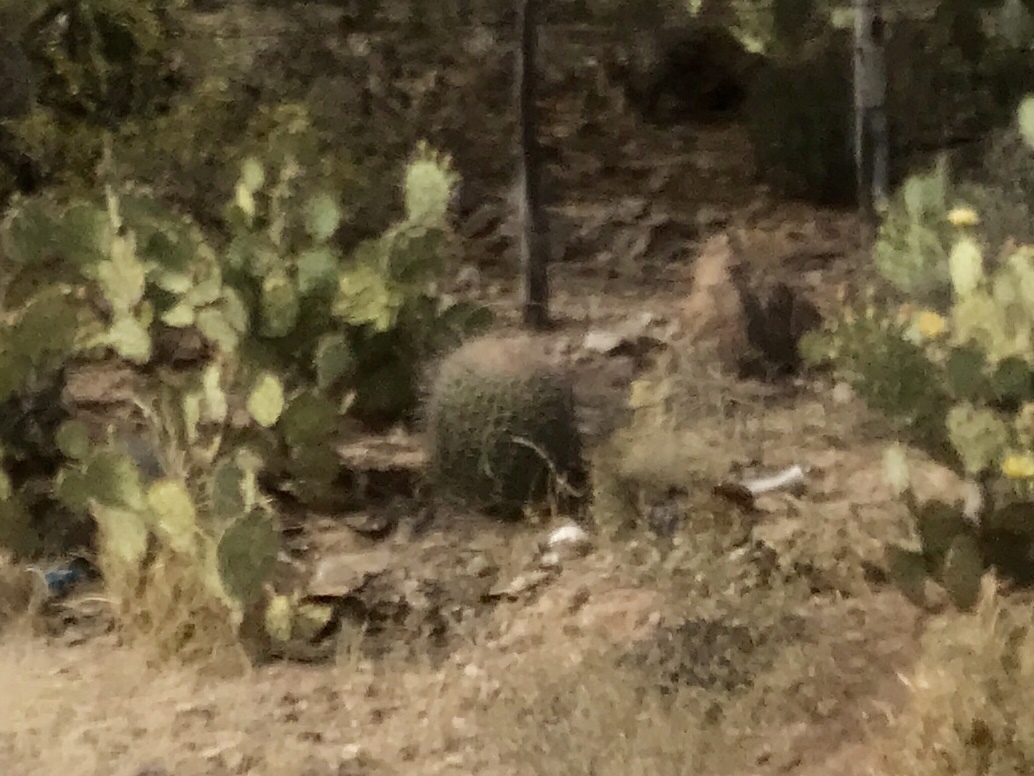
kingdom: Plantae
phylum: Tracheophyta
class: Magnoliopsida
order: Caryophyllales
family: Cactaceae
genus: Ferocactus
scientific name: Ferocactus wislizeni
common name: Candy barrel cactus
